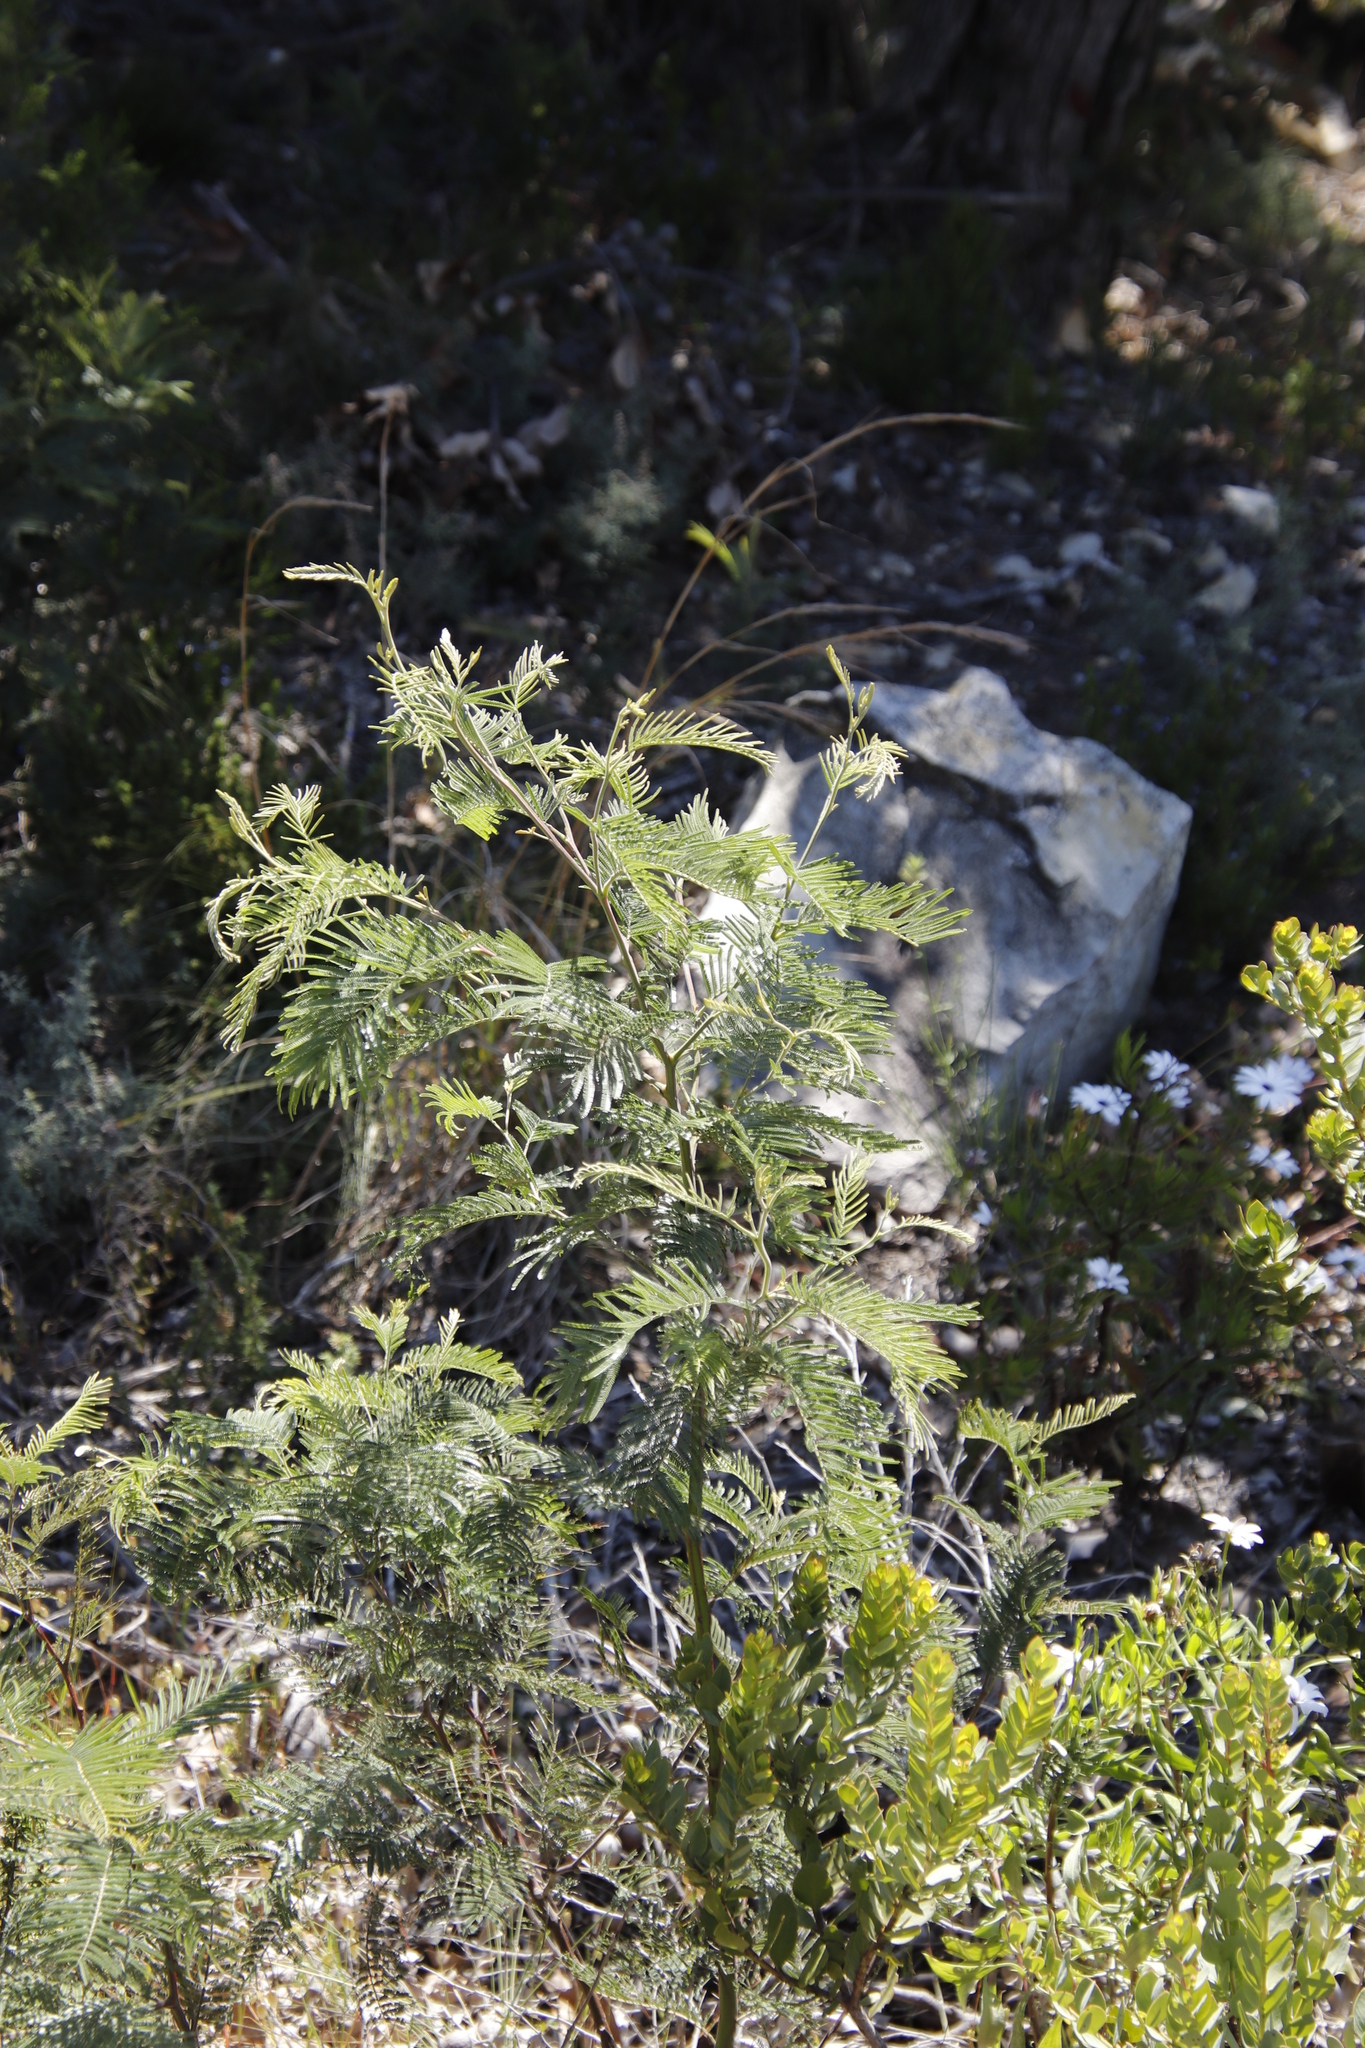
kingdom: Plantae
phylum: Tracheophyta
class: Magnoliopsida
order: Fabales
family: Fabaceae
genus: Acacia
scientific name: Acacia mearnsii
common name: Black wattle
